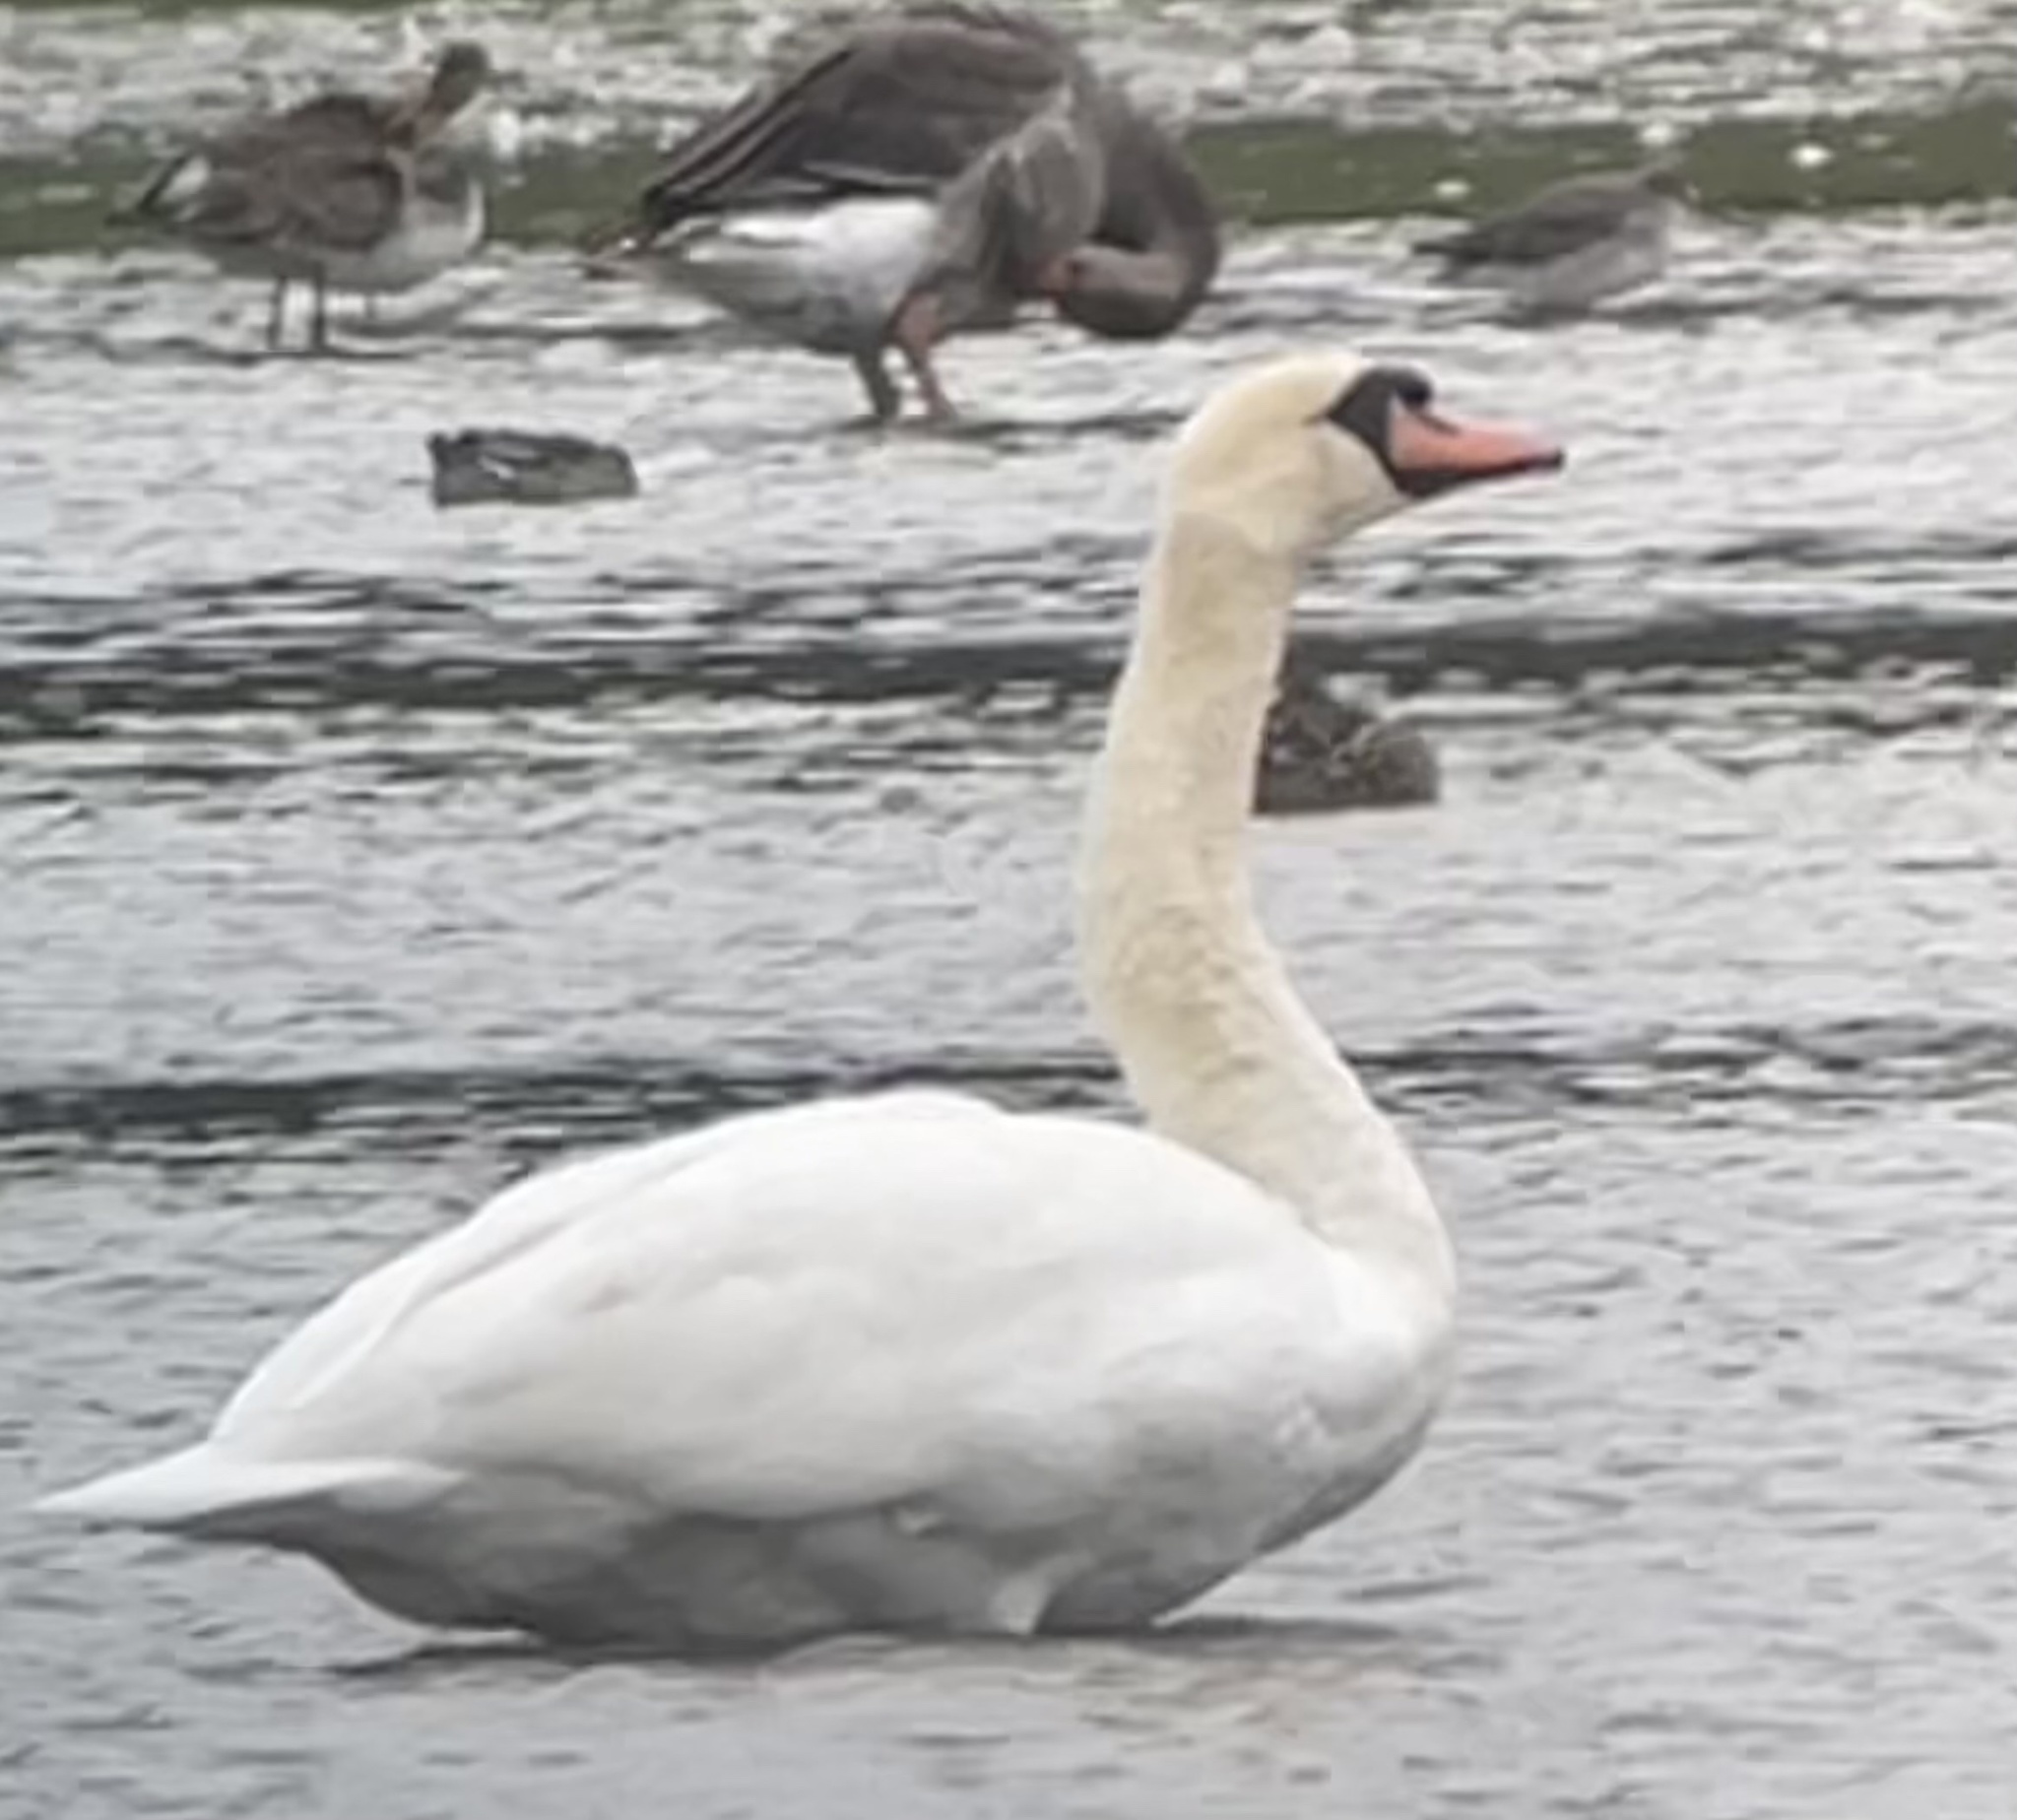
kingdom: Animalia
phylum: Chordata
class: Aves
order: Anseriformes
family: Anatidae
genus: Cygnus
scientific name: Cygnus olor
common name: Mute swan
